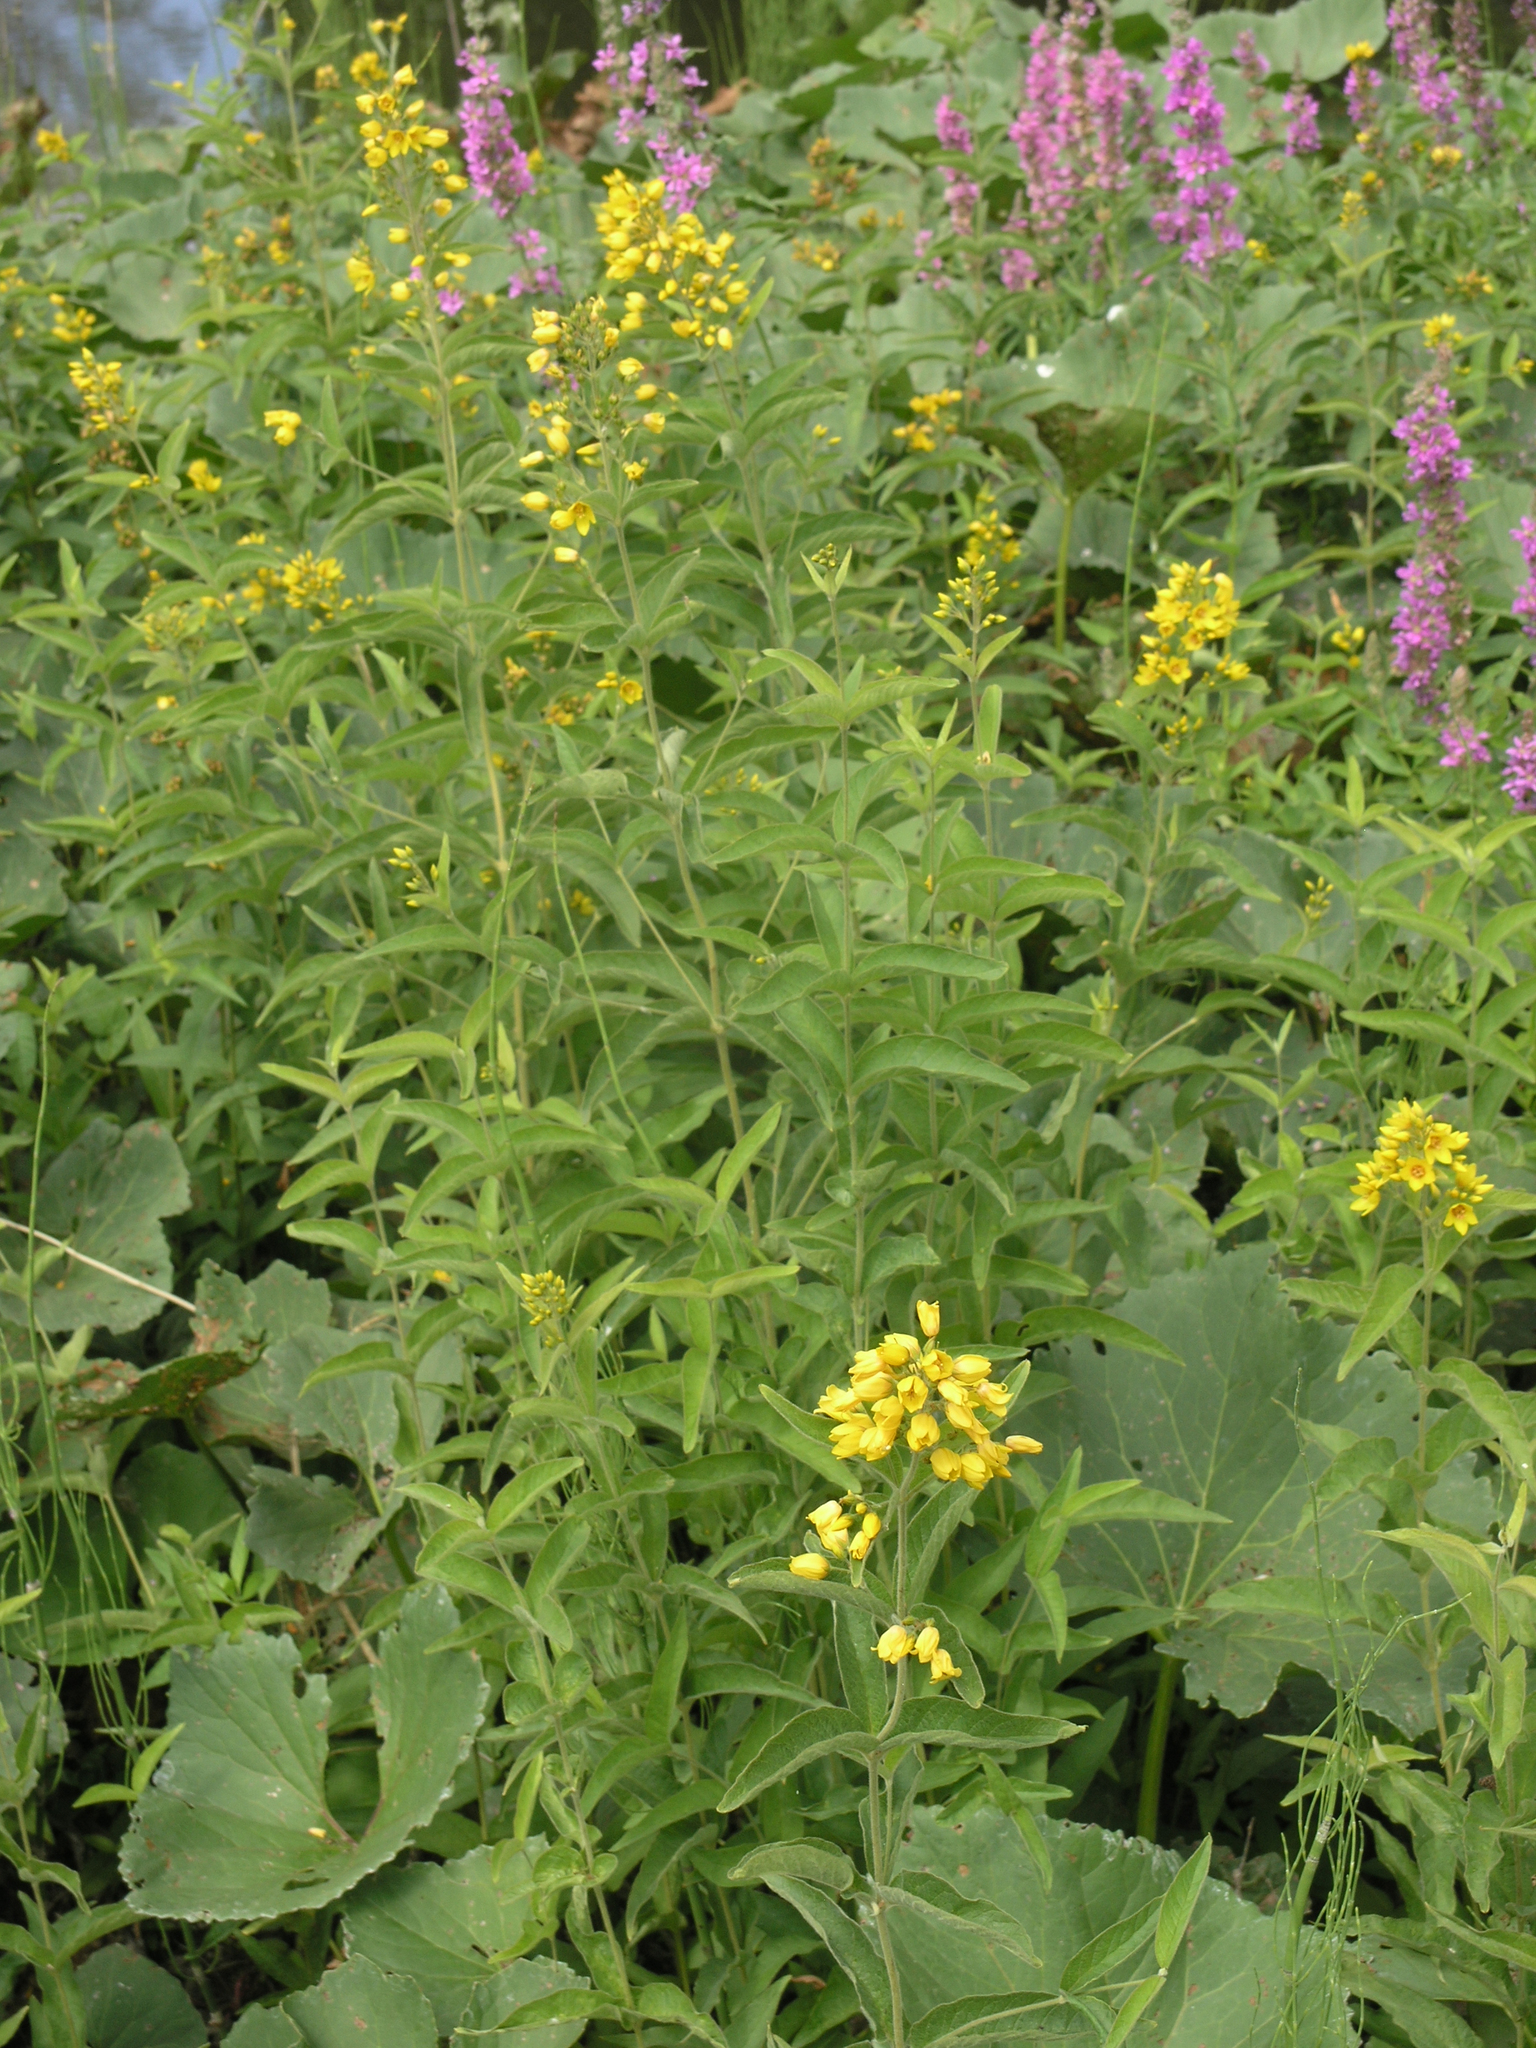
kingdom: Plantae
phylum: Tracheophyta
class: Magnoliopsida
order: Ericales
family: Primulaceae
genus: Lysimachia
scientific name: Lysimachia vulgaris
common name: Yellow loosestrife
